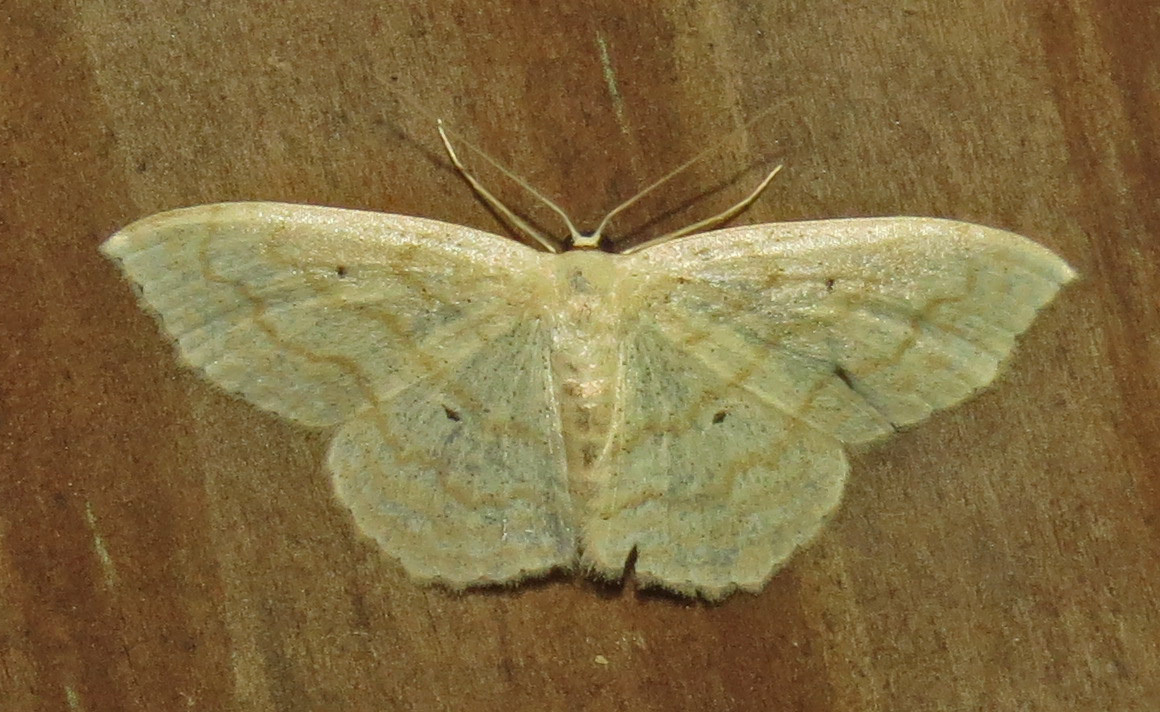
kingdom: Animalia
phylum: Arthropoda
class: Insecta
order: Lepidoptera
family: Geometridae
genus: Scopula
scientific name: Scopula limboundata
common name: Large lace border
